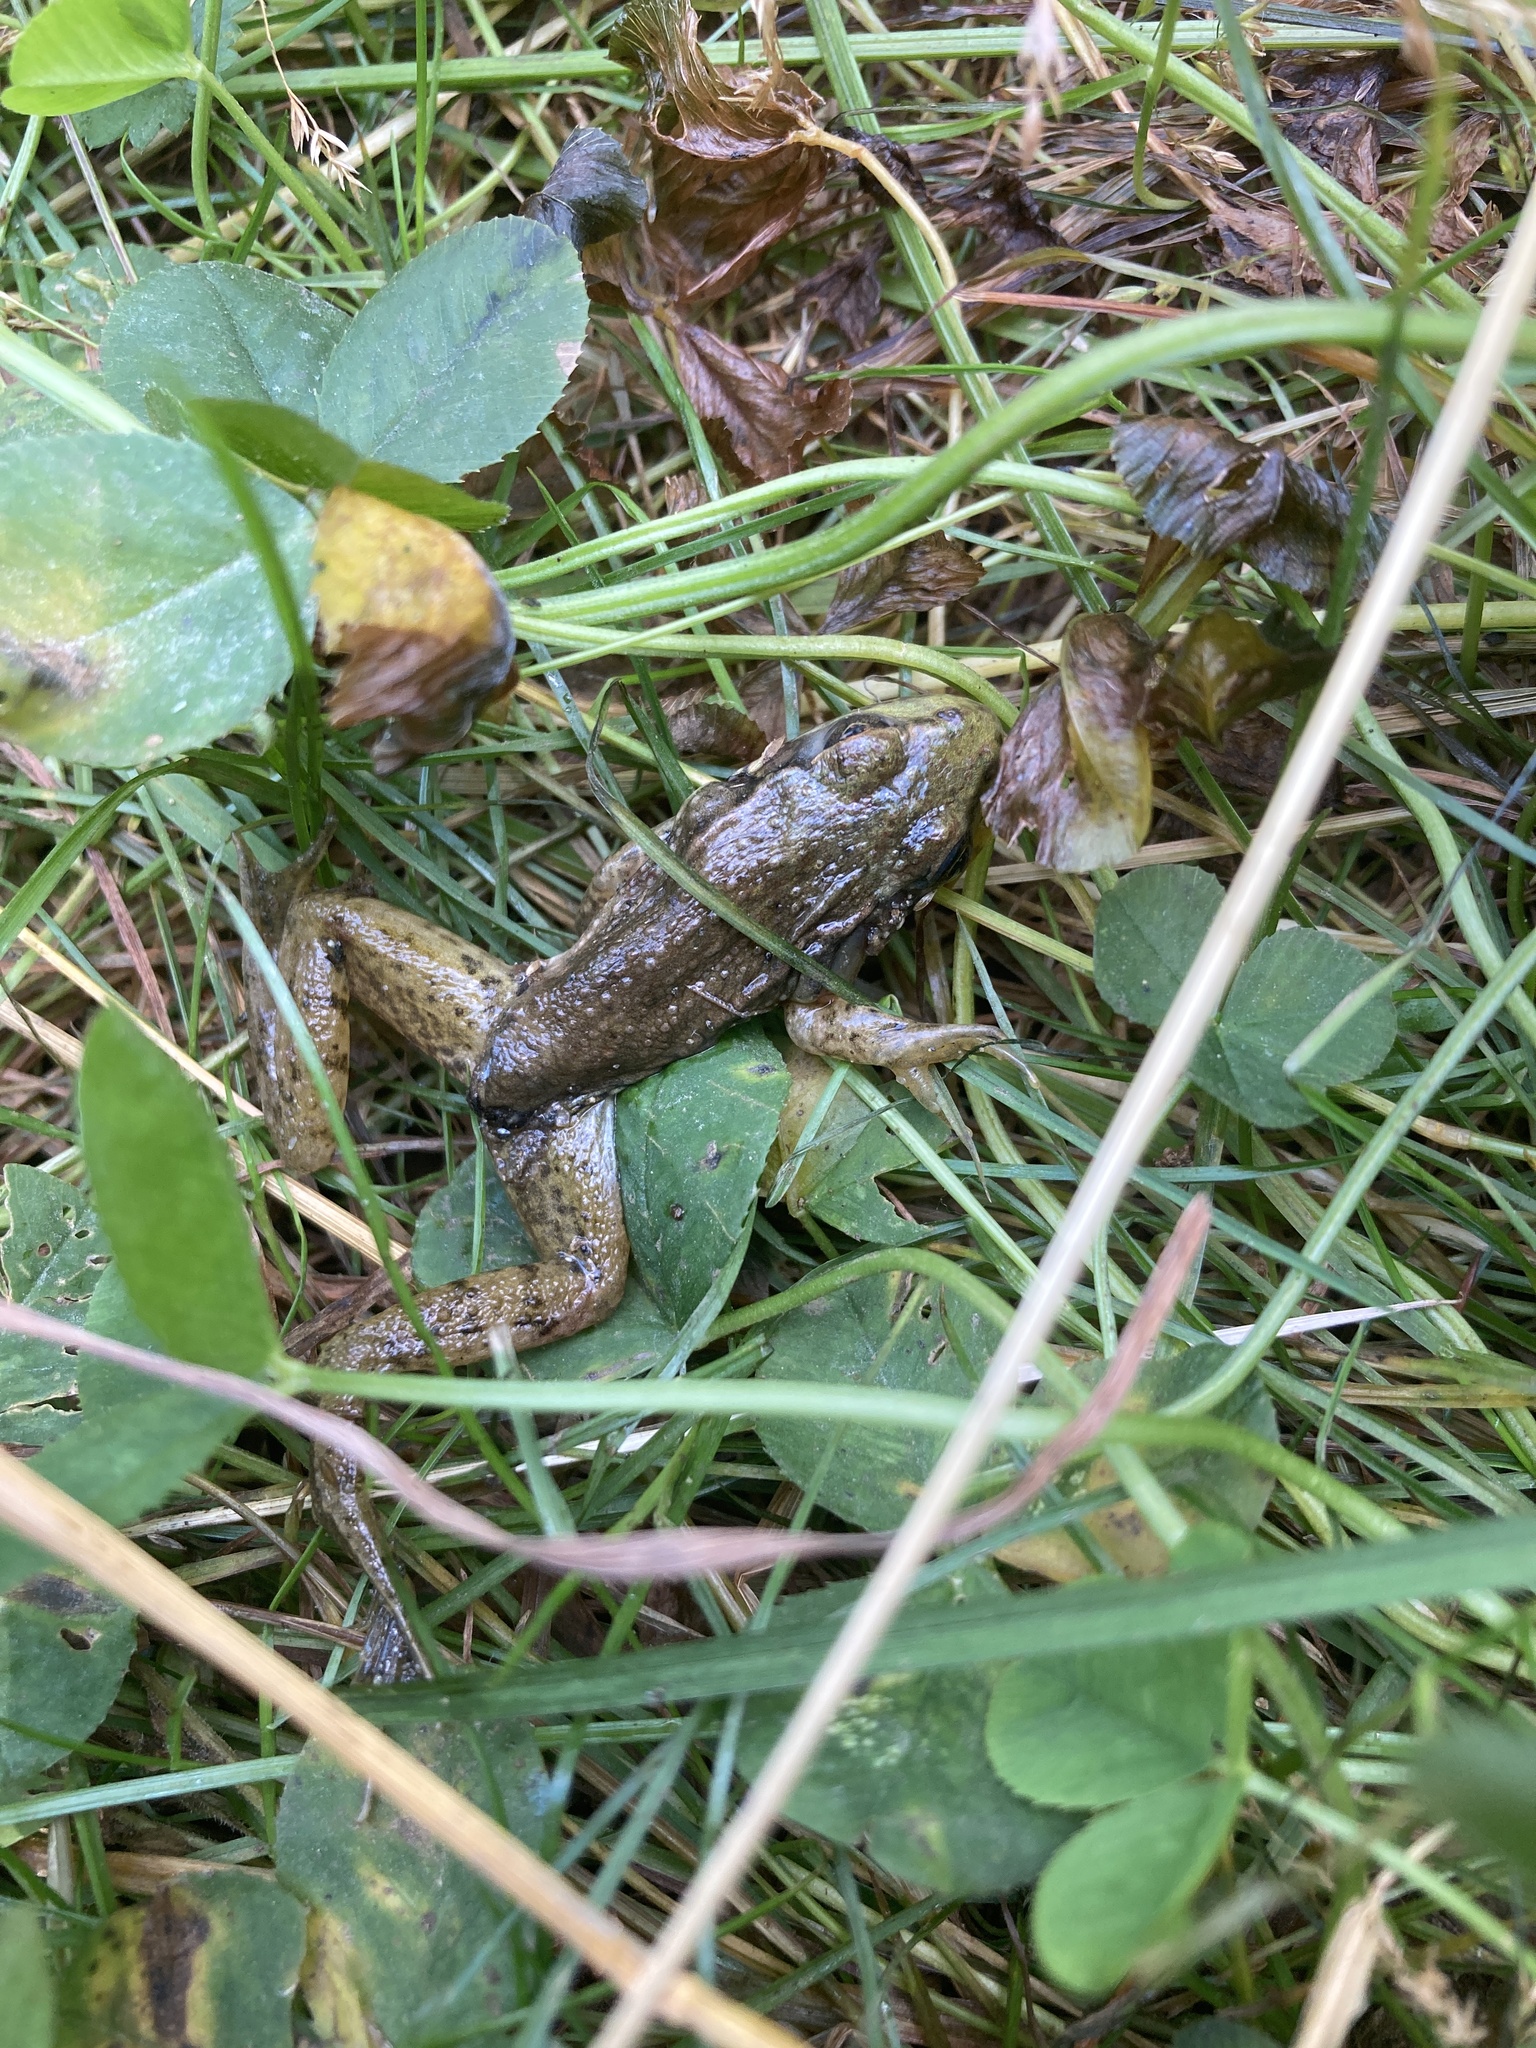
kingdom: Animalia
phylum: Chordata
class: Amphibia
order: Anura
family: Ranidae
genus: Lithobates
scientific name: Lithobates clamitans
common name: Green frog
